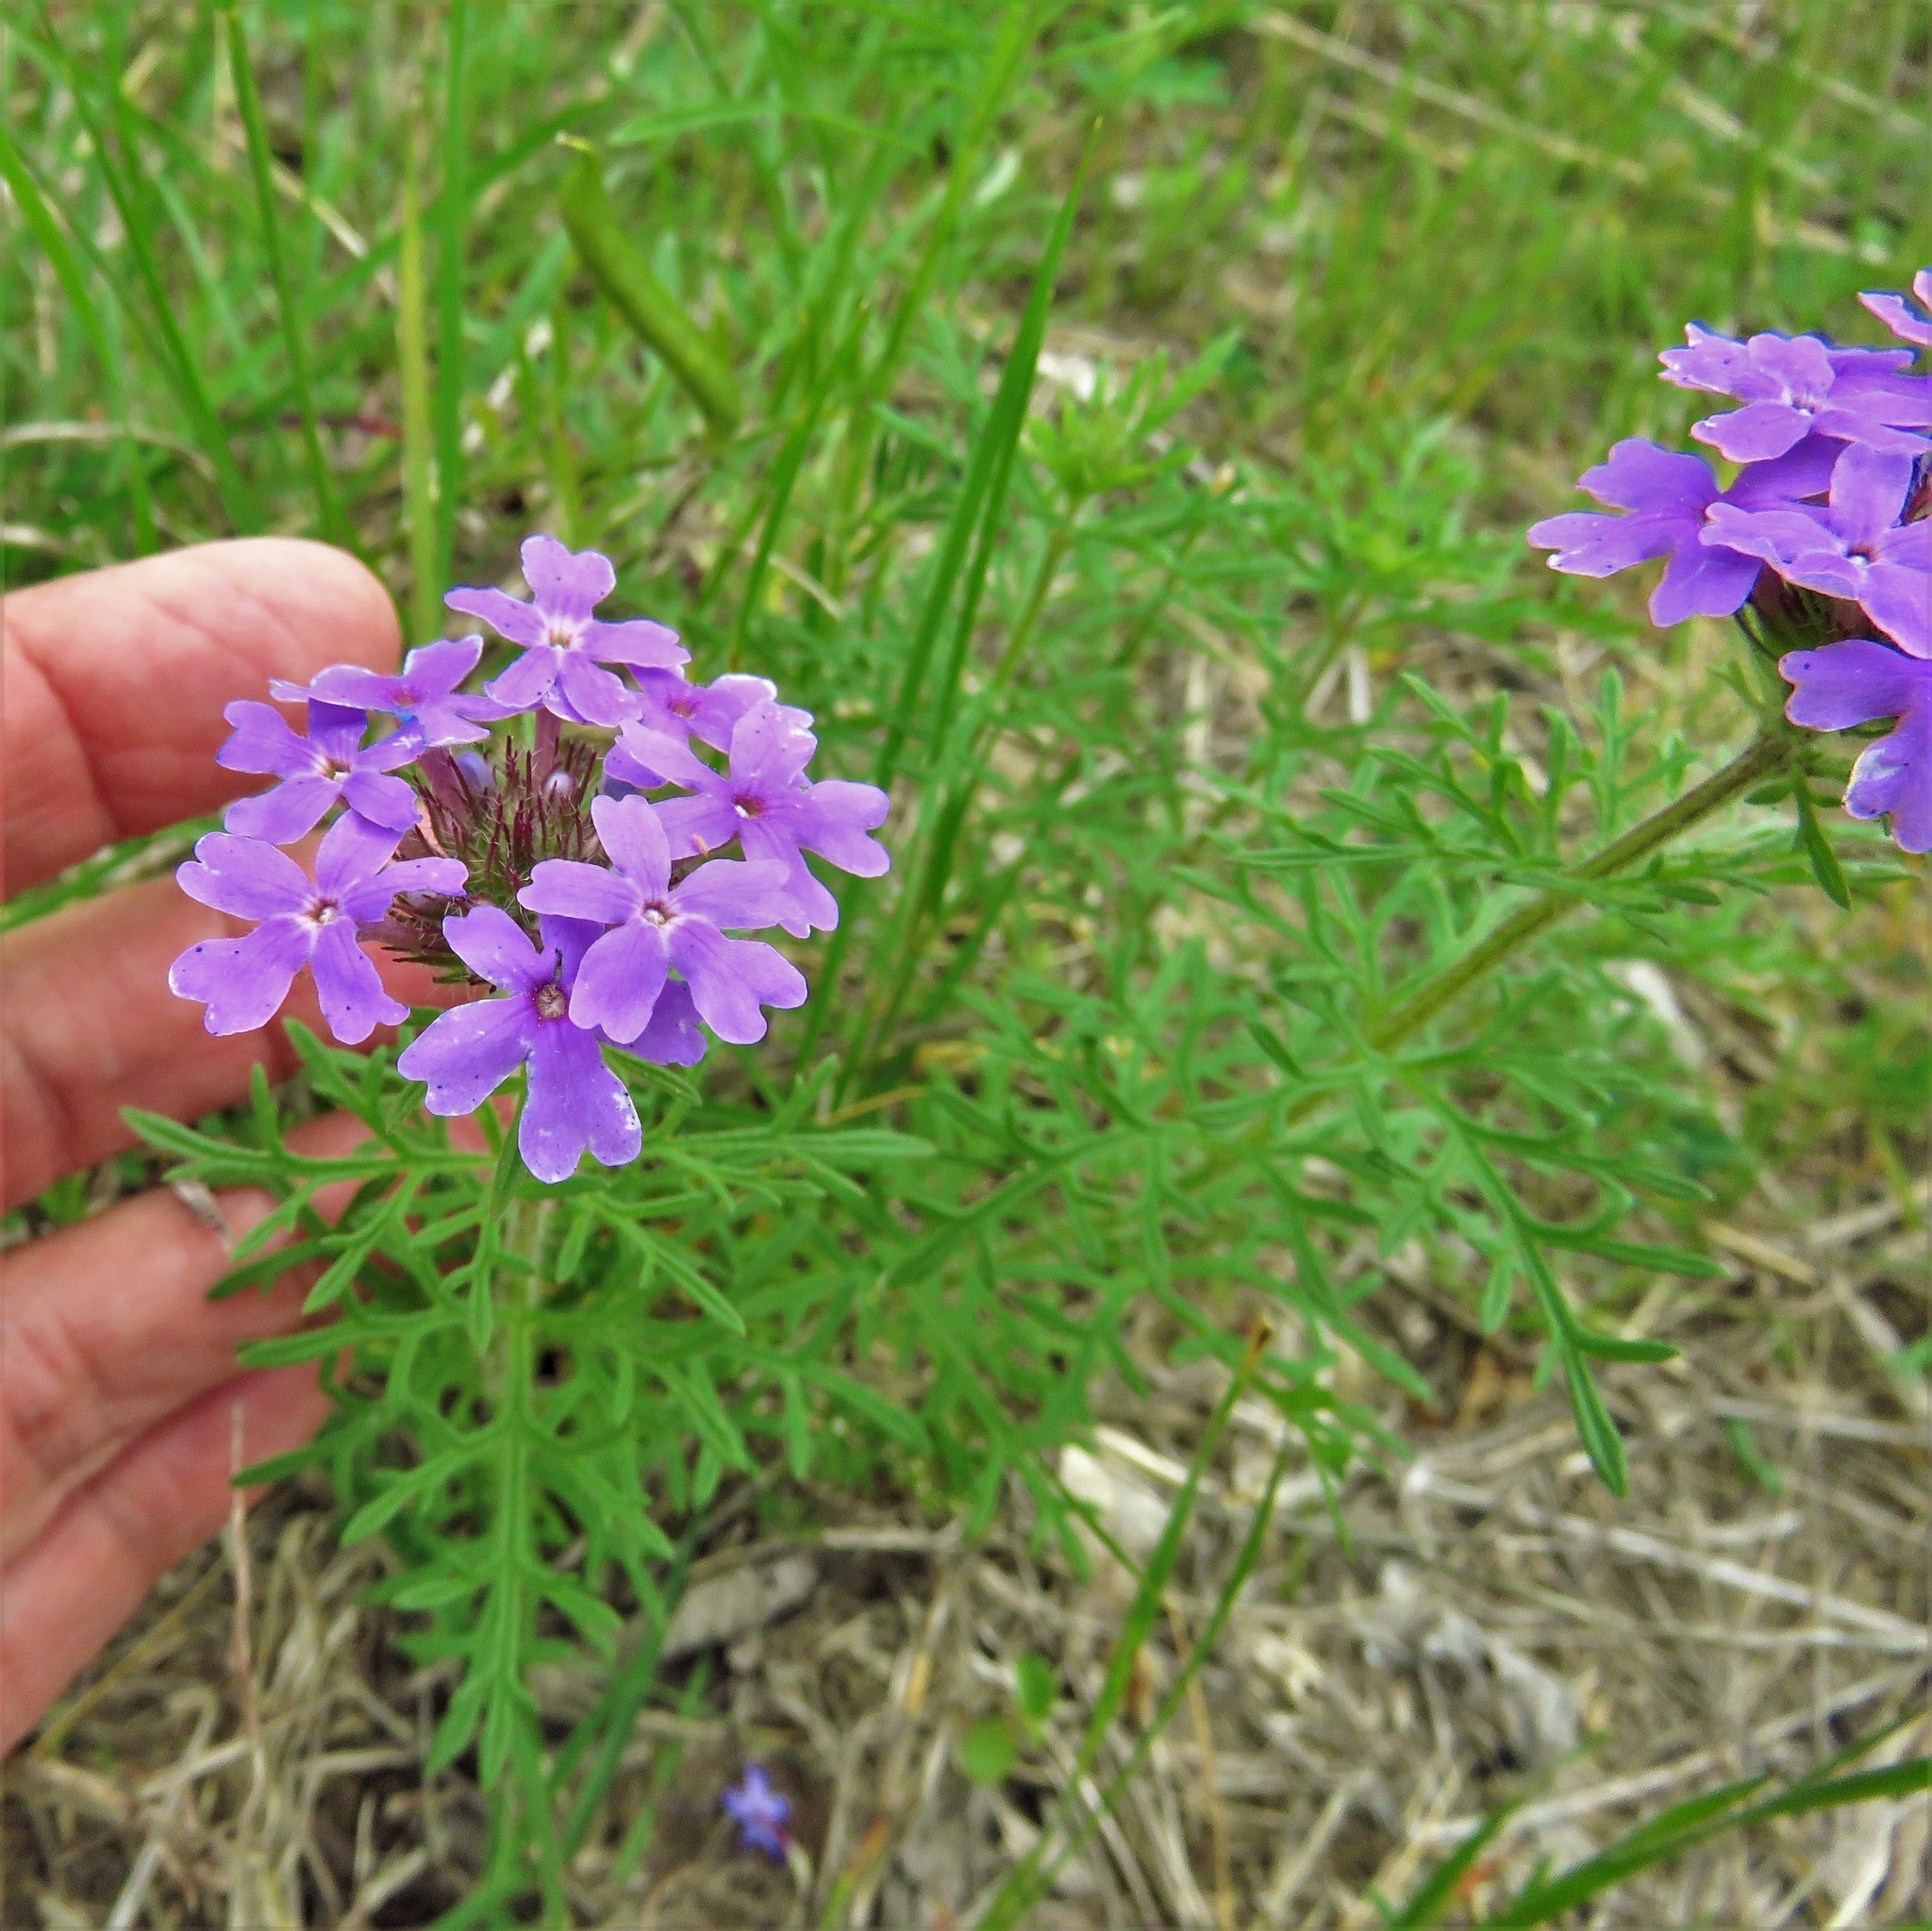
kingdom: Plantae
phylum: Tracheophyta
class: Magnoliopsida
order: Lamiales
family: Verbenaceae
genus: Verbena
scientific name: Verbena bipinnatifida
